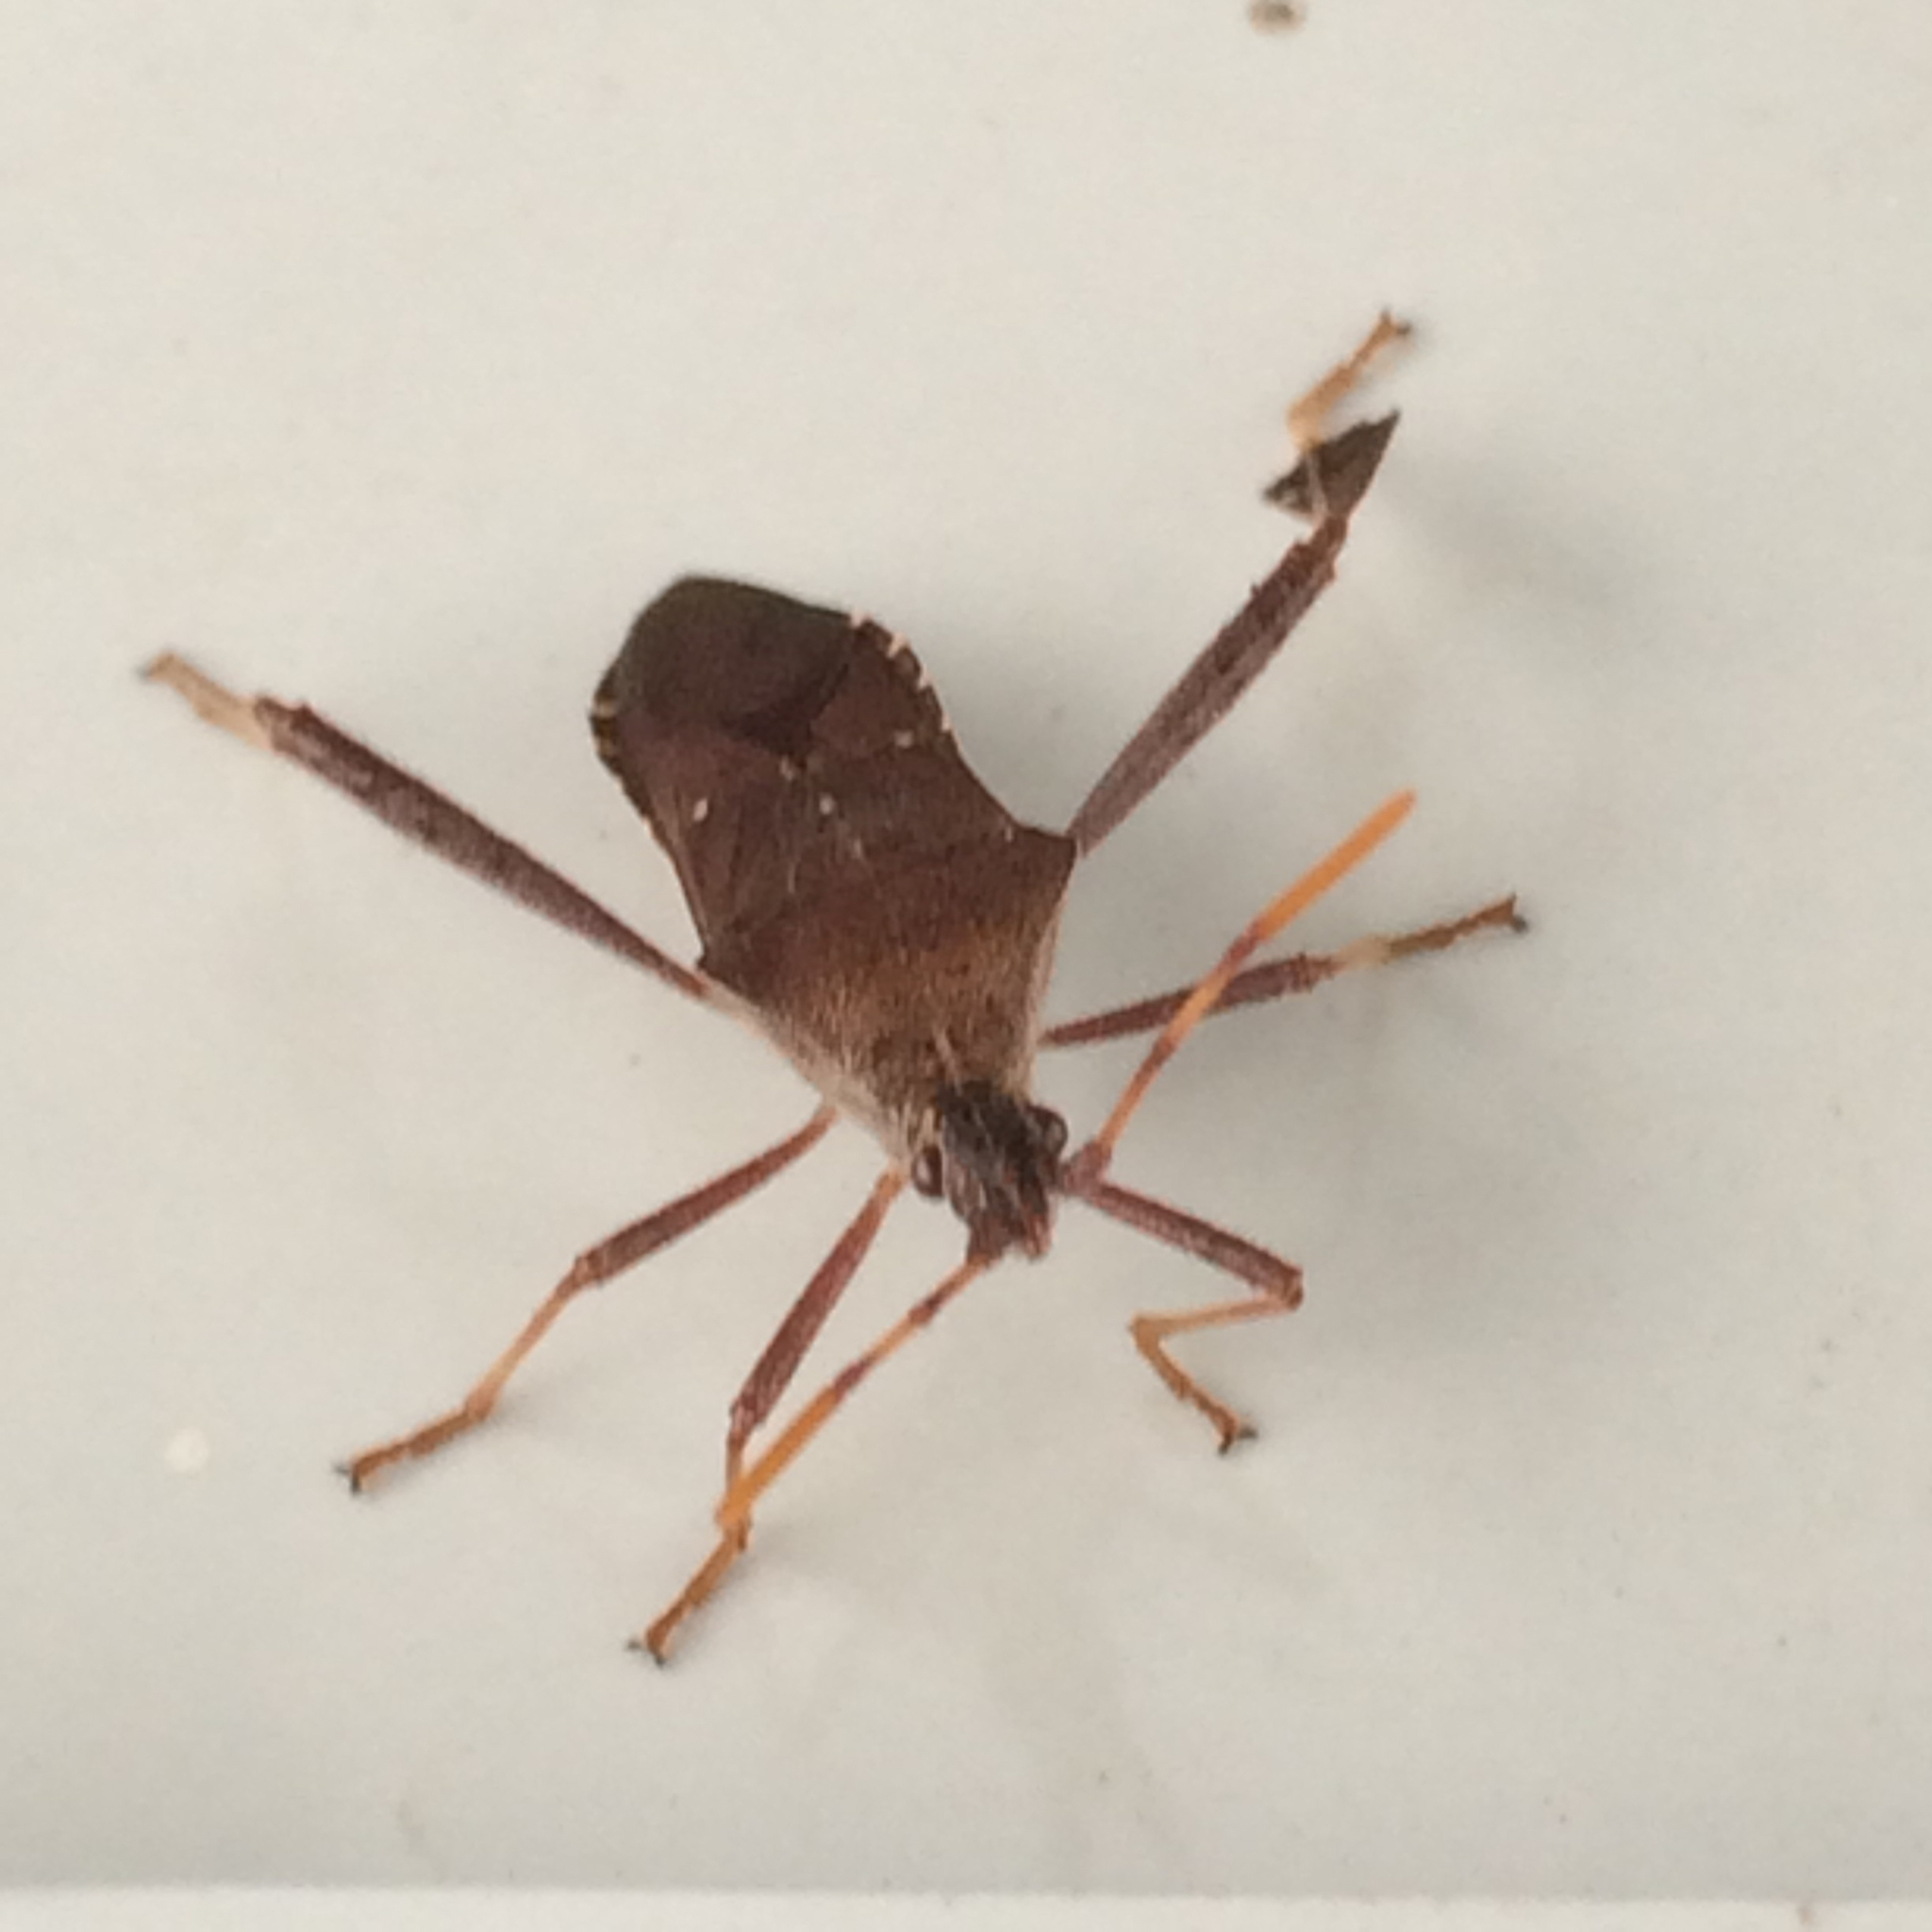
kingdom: Animalia
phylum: Arthropoda
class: Insecta
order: Hemiptera
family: Coreidae
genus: Leptoglossus
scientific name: Leptoglossus oppositus
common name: Northern leaf-footed bug
